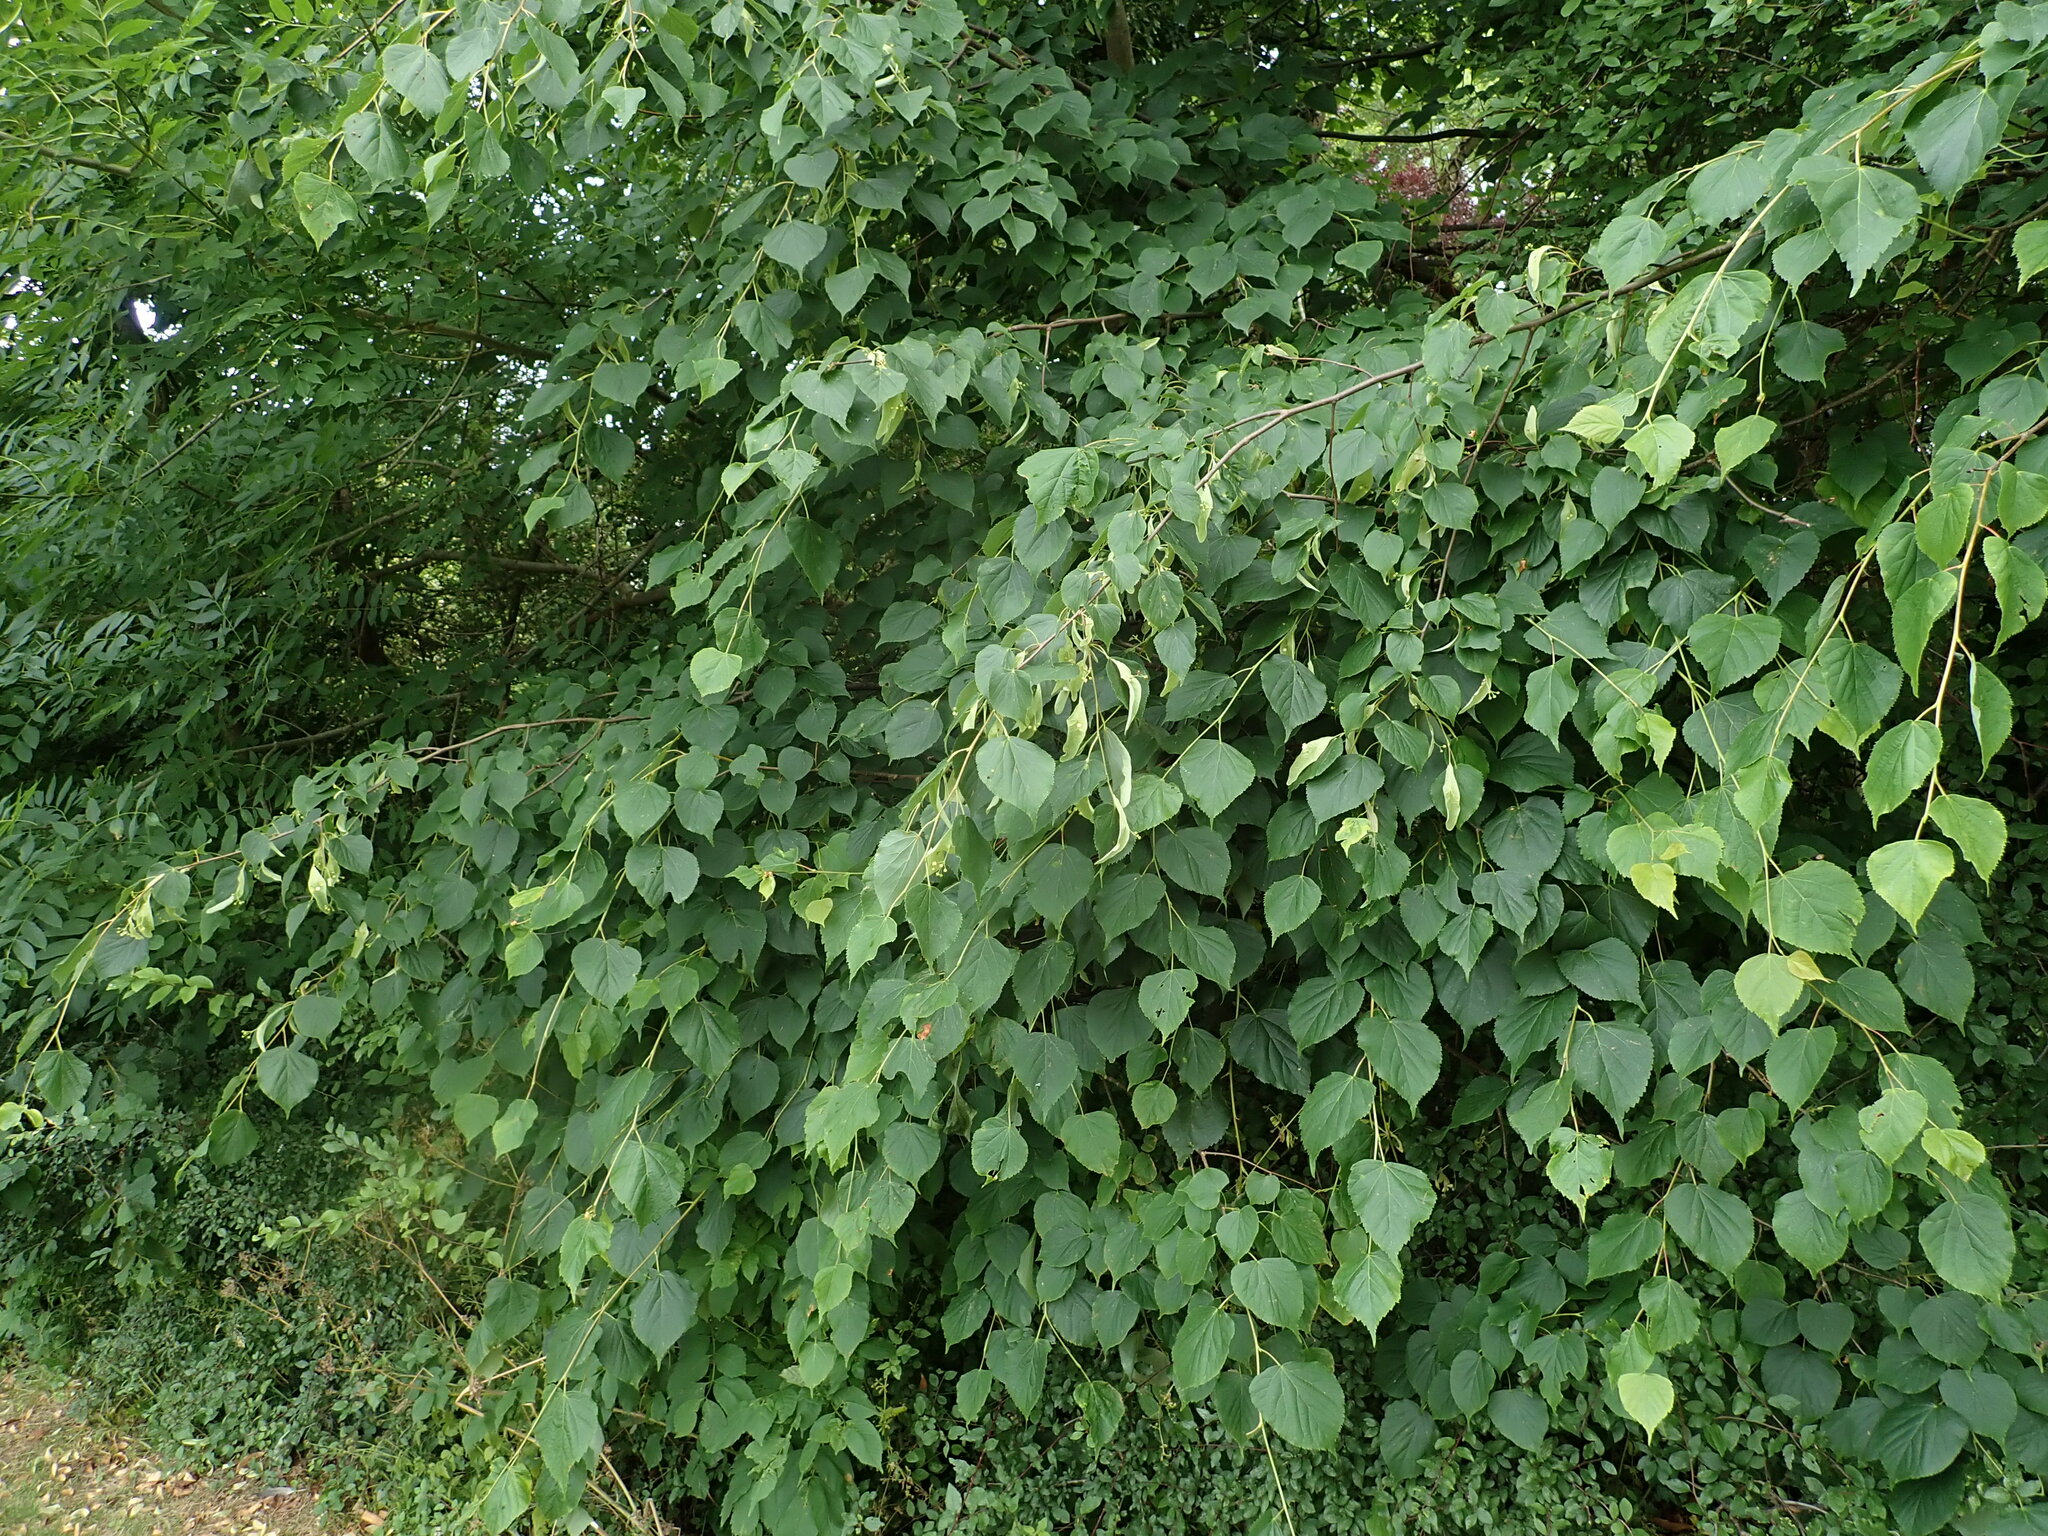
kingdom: Plantae
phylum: Tracheophyta
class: Magnoliopsida
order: Malvales
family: Malvaceae
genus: Tilia
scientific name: Tilia cordata
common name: Small-leaved lime
